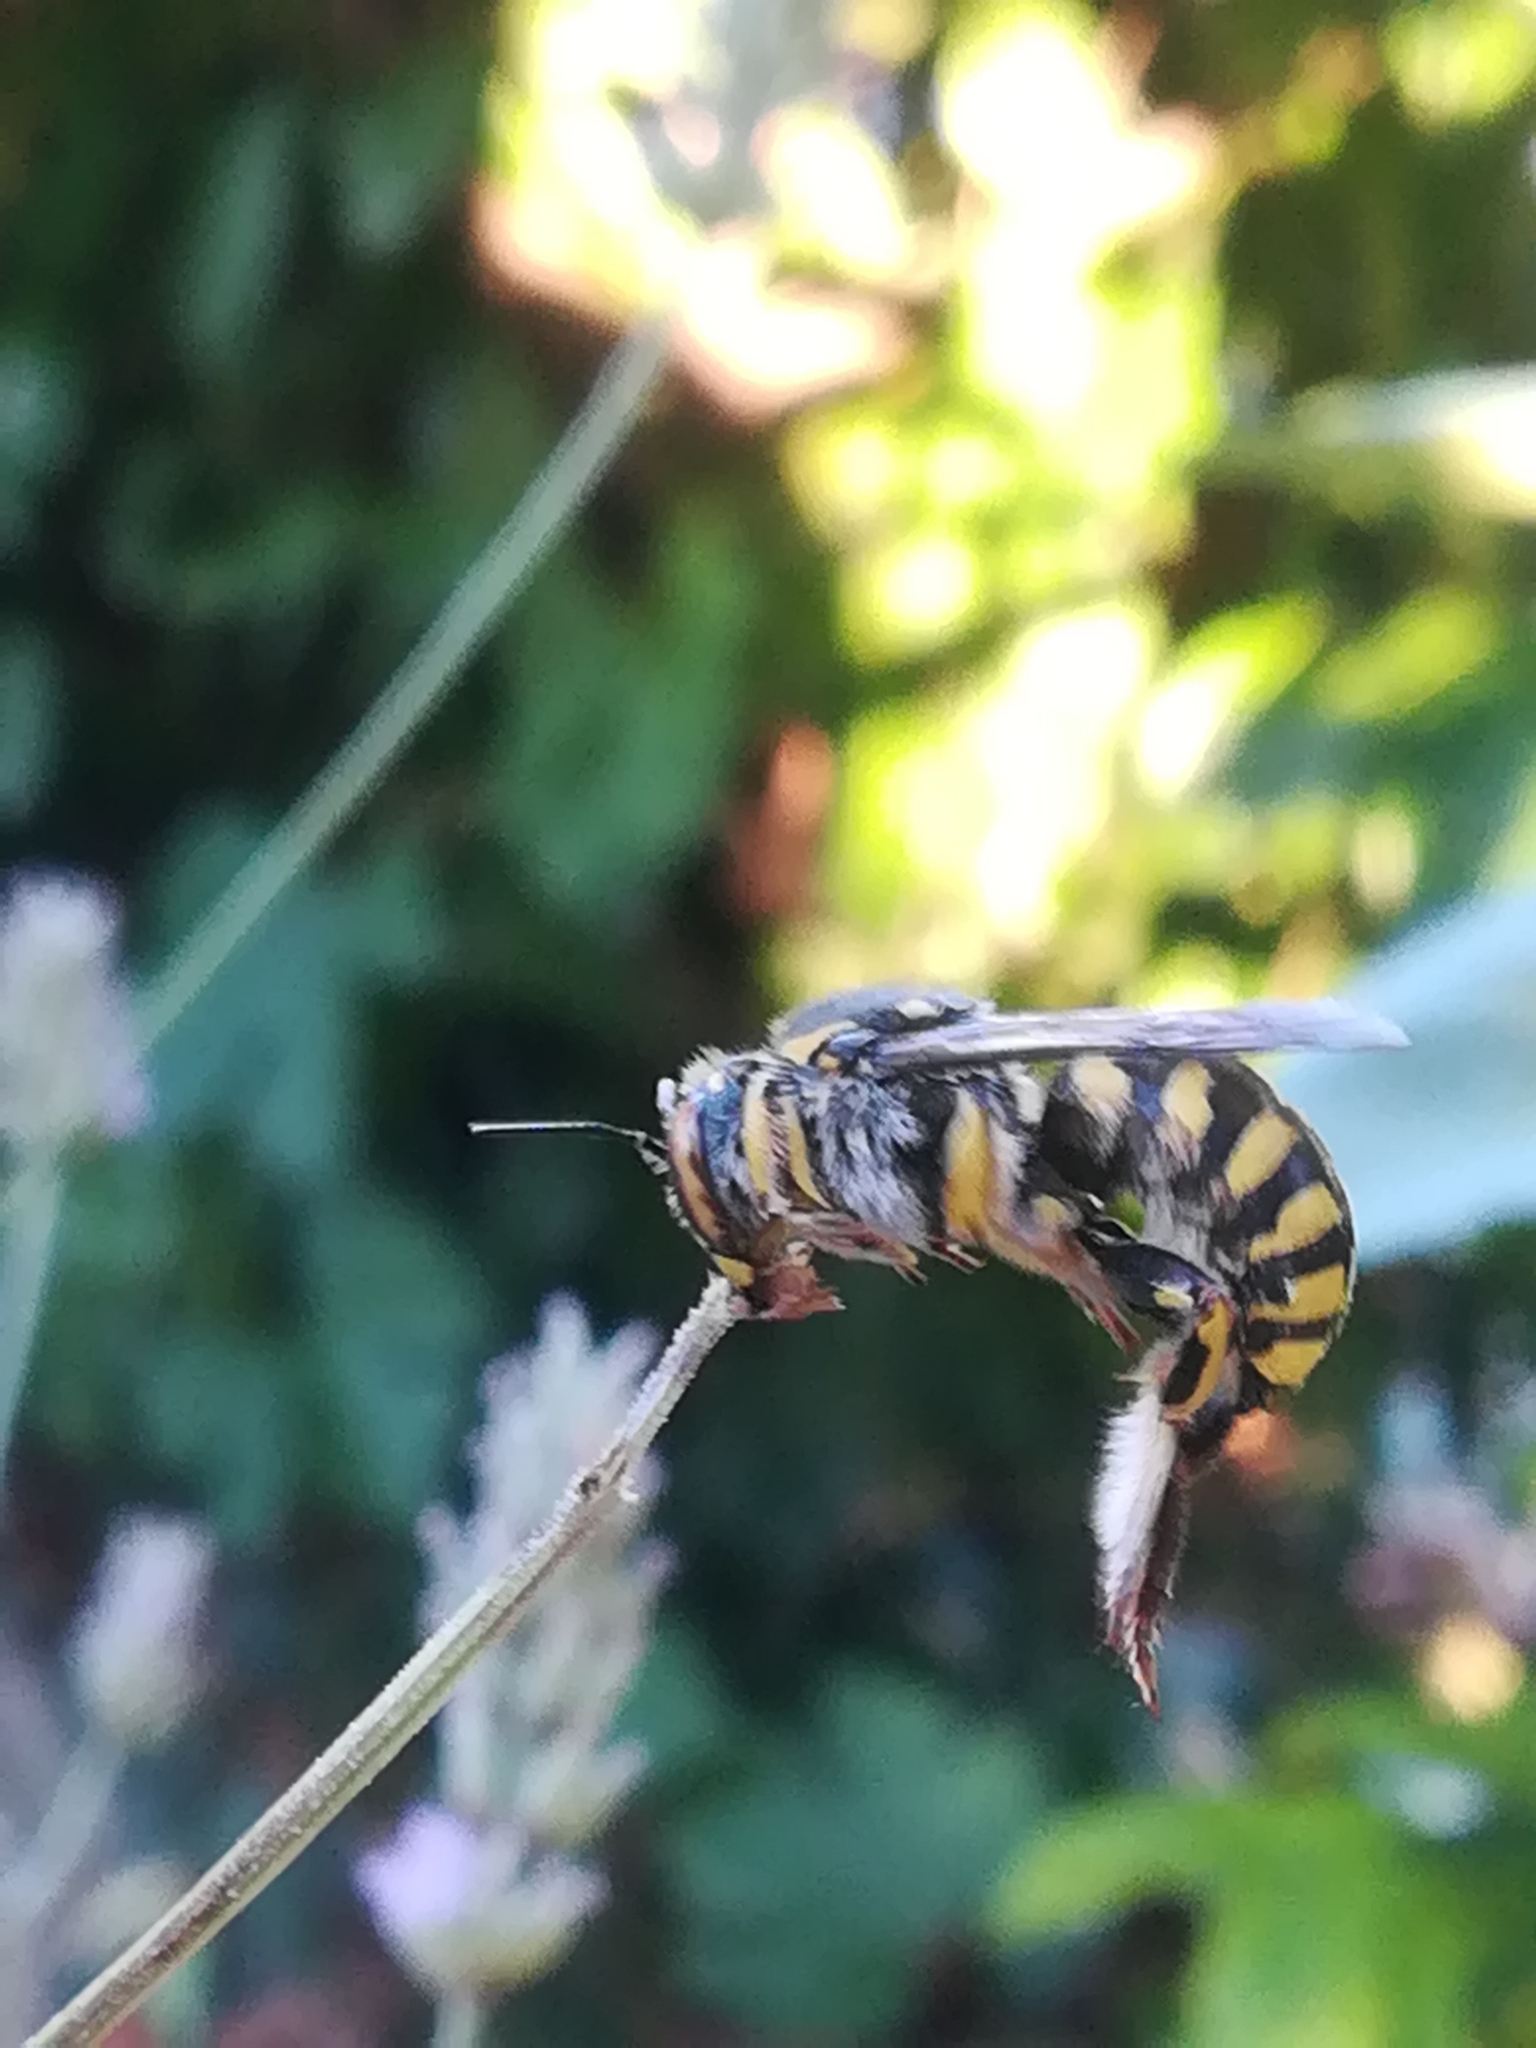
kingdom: Animalia
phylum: Arthropoda
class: Insecta
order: Hymenoptera
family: Megachilidae
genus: Anthidium
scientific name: Anthidium florentinum
